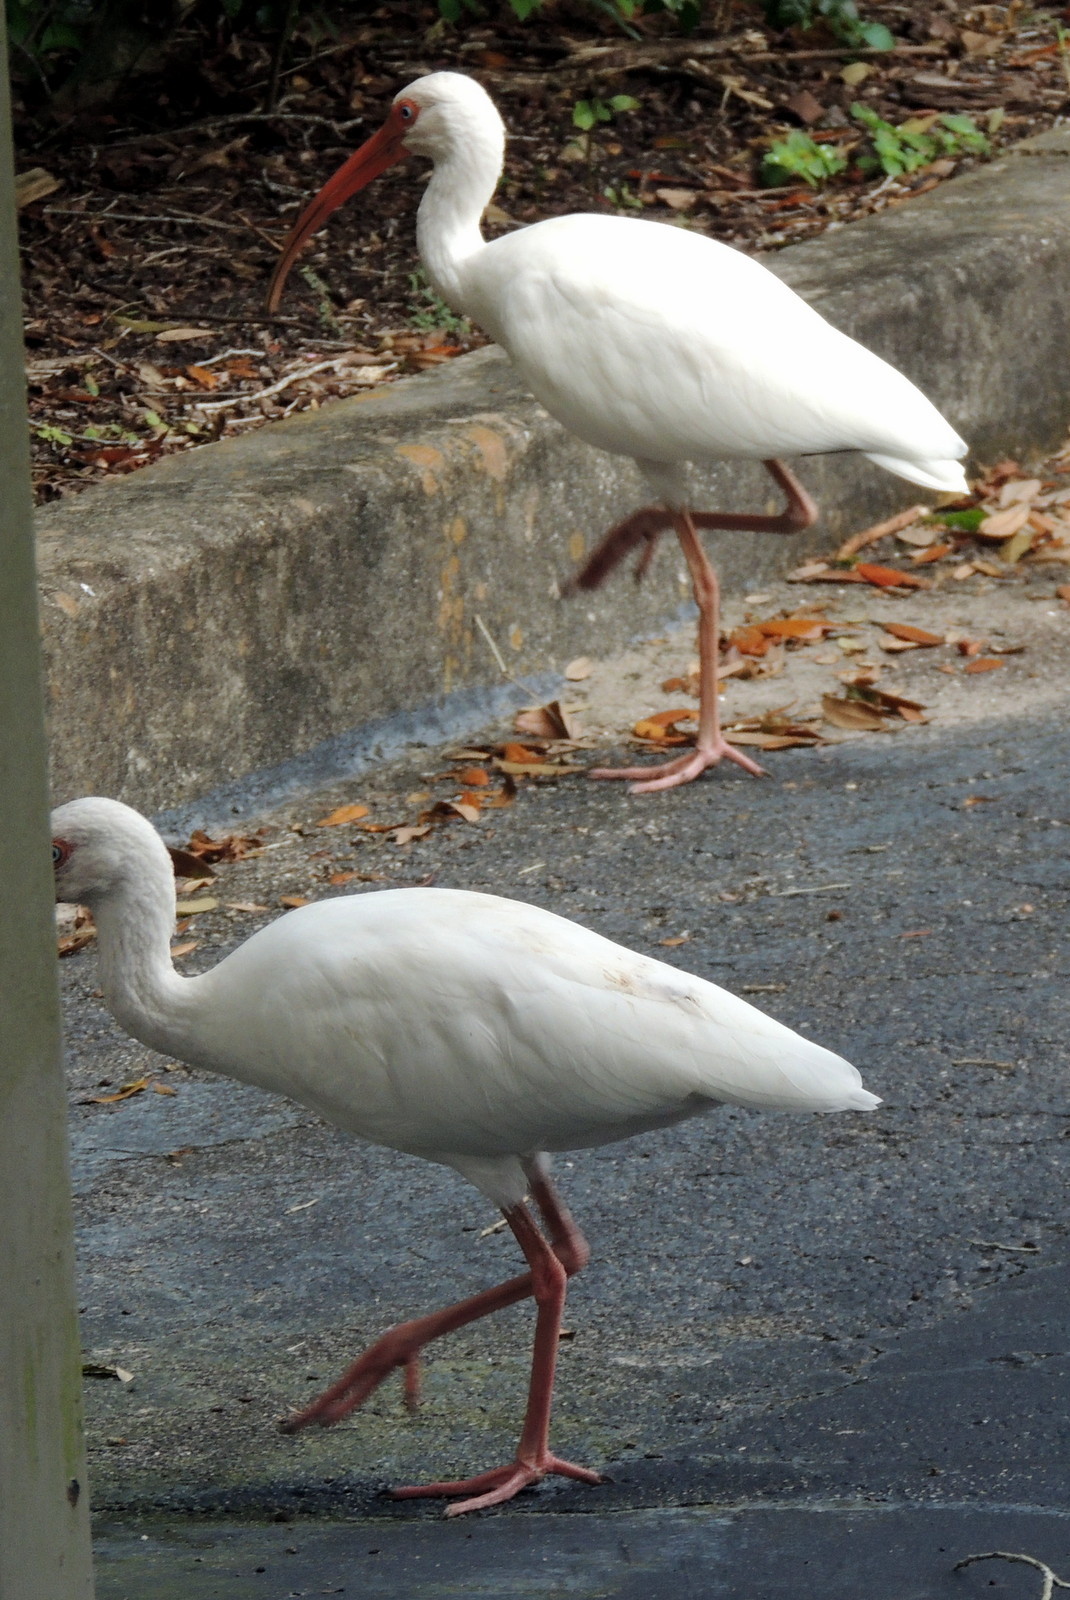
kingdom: Animalia
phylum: Chordata
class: Aves
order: Pelecaniformes
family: Threskiornithidae
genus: Eudocimus
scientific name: Eudocimus albus
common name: White ibis
